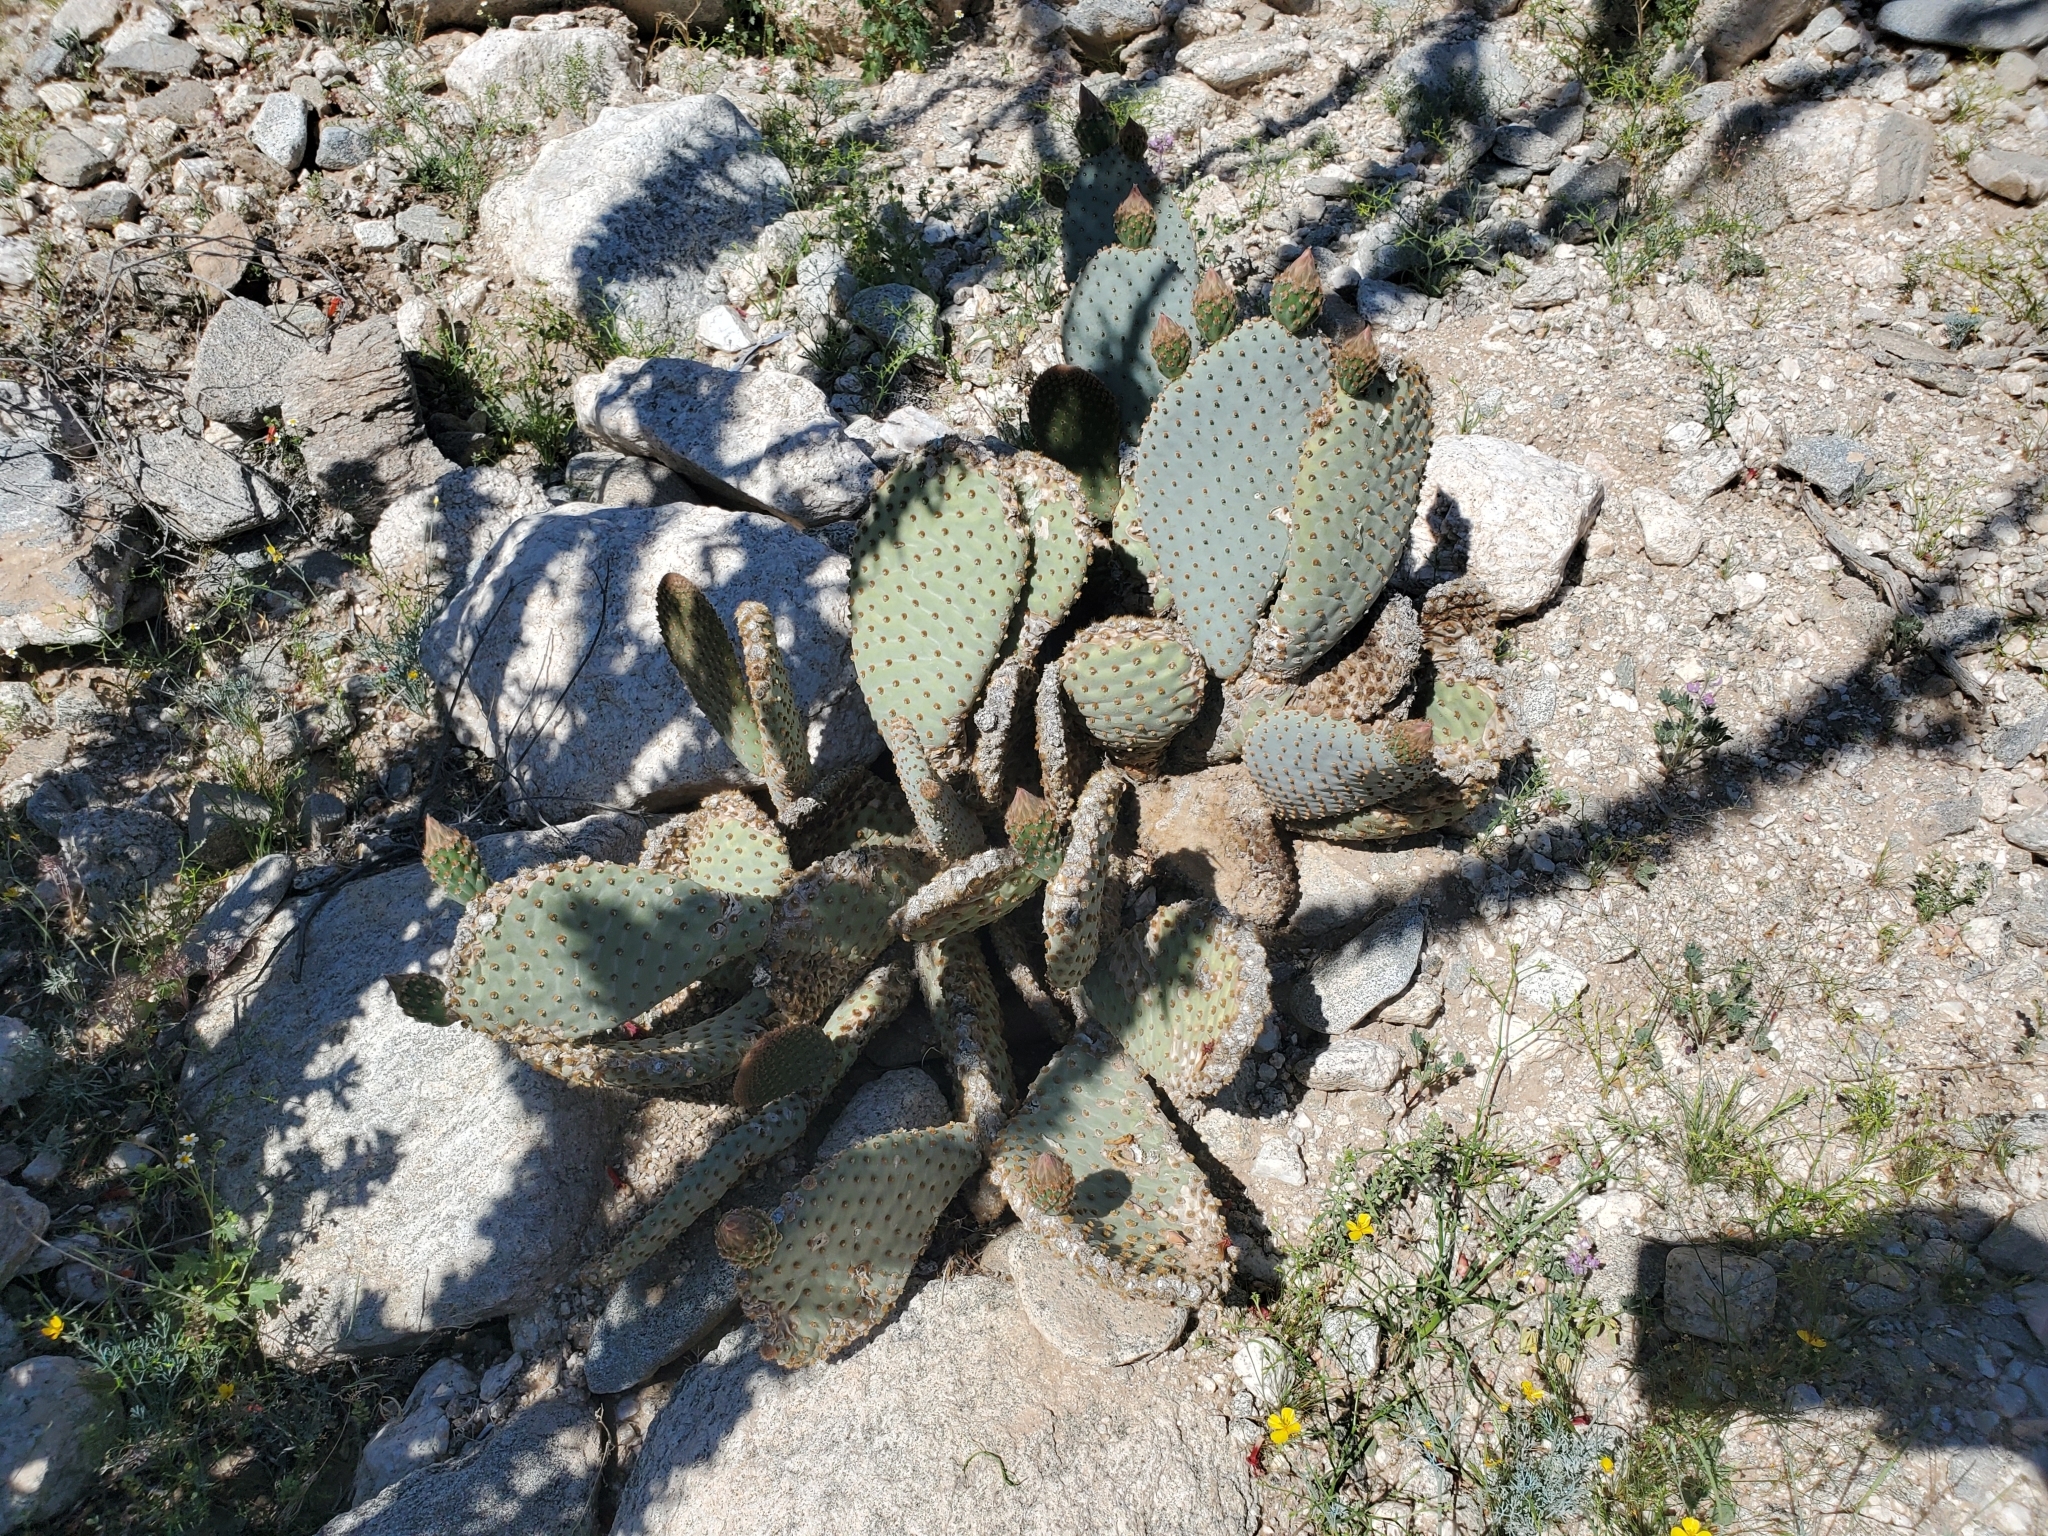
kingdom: Plantae
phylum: Tracheophyta
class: Magnoliopsida
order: Caryophyllales
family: Cactaceae
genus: Opuntia
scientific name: Opuntia basilaris
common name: Beavertail prickly-pear
